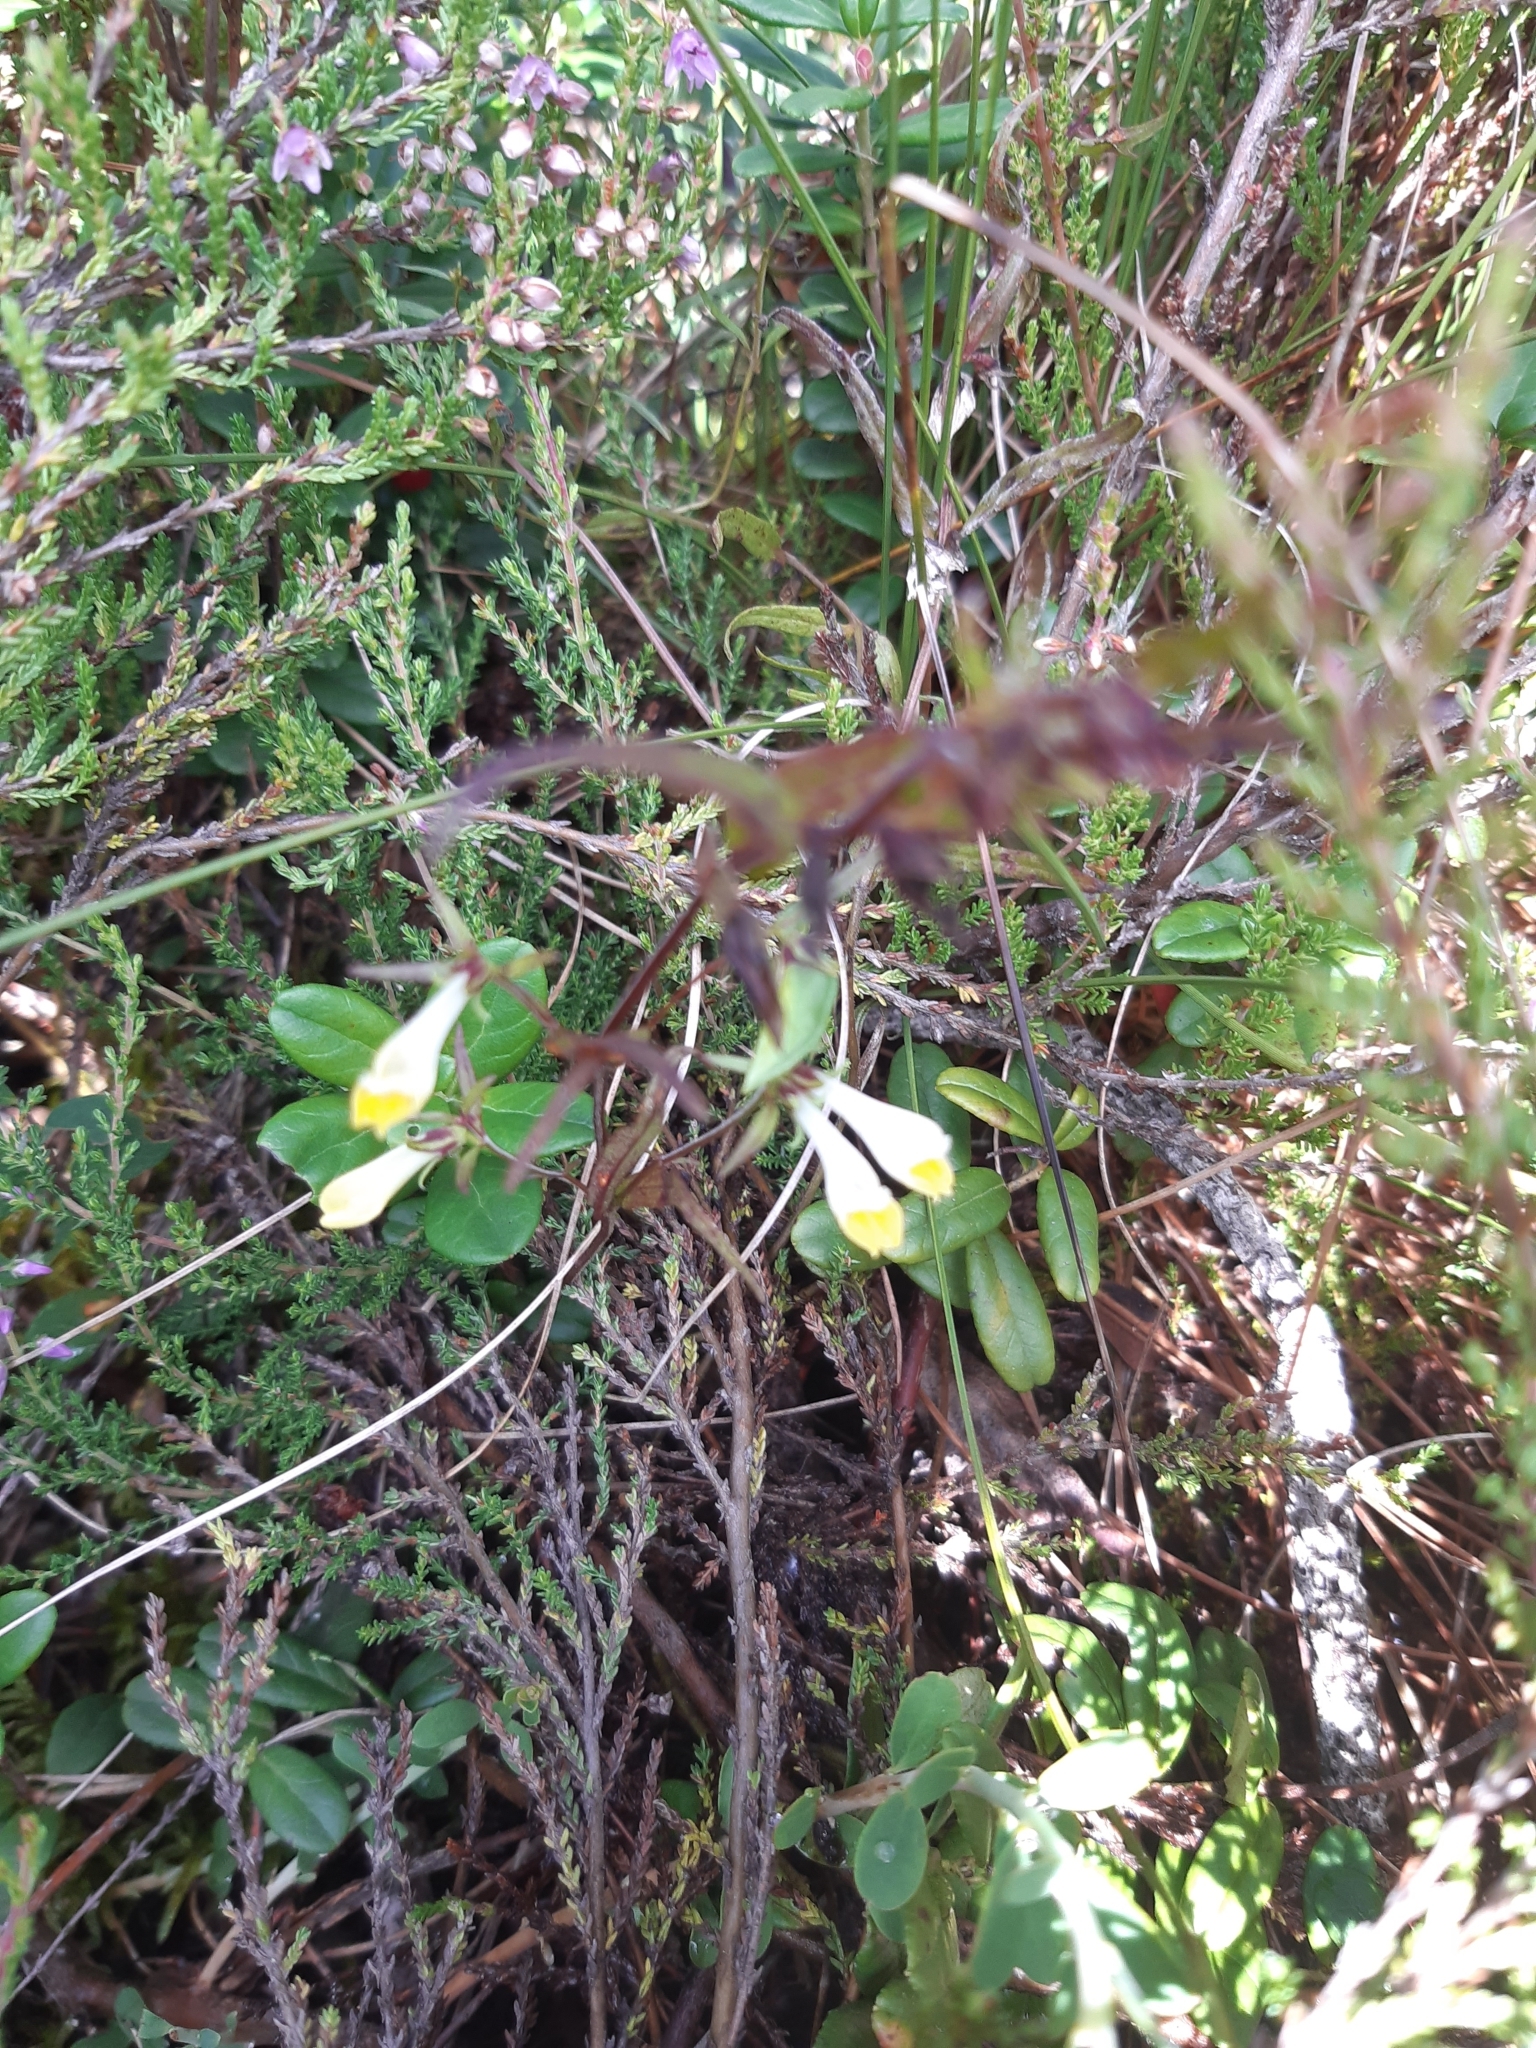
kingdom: Plantae
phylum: Tracheophyta
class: Magnoliopsida
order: Lamiales
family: Orobanchaceae
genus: Melampyrum
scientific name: Melampyrum pratense
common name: Common cow-wheat
